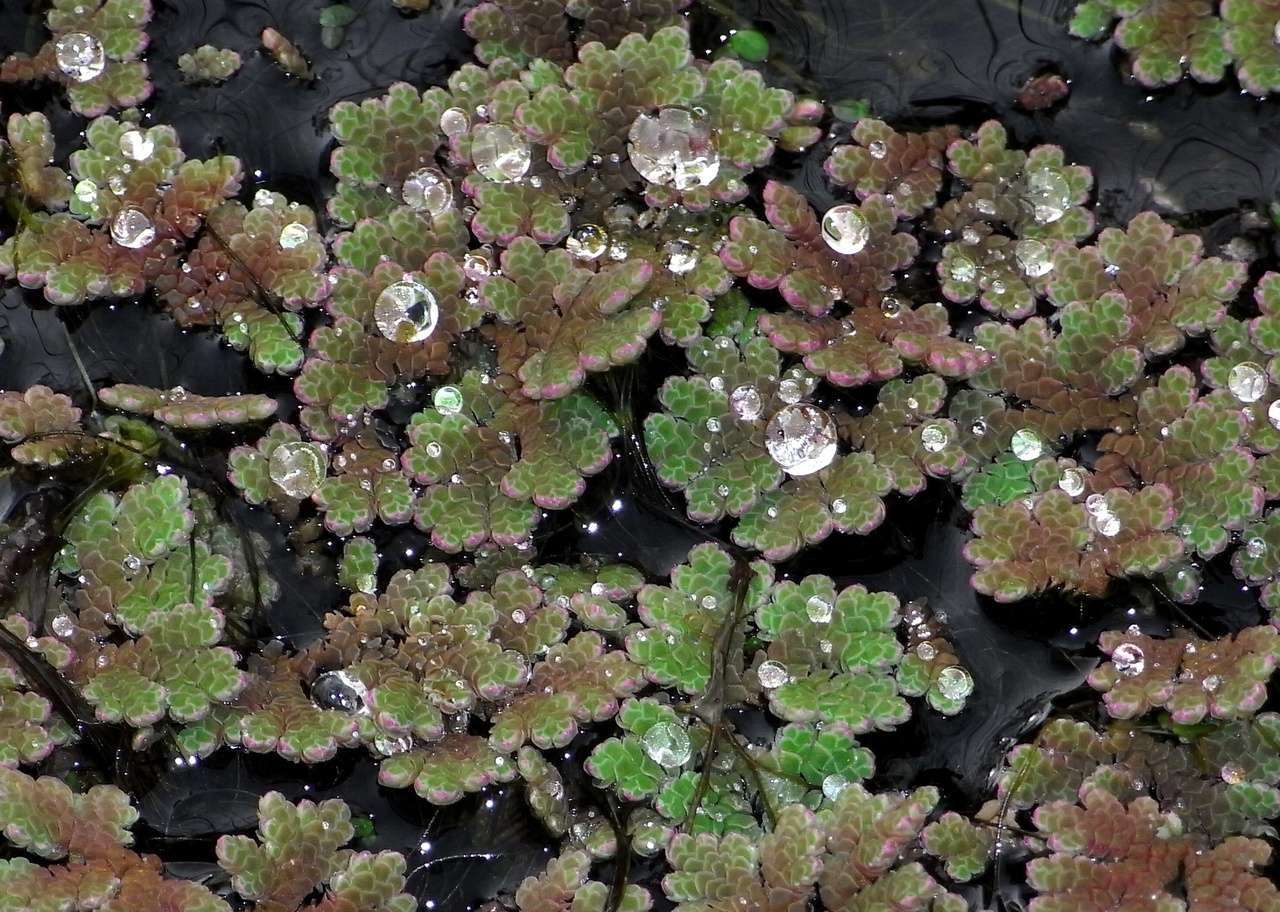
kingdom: Plantae
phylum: Tracheophyta
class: Polypodiopsida
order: Salviniales
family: Salviniaceae
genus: Azolla
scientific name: Azolla rubra
